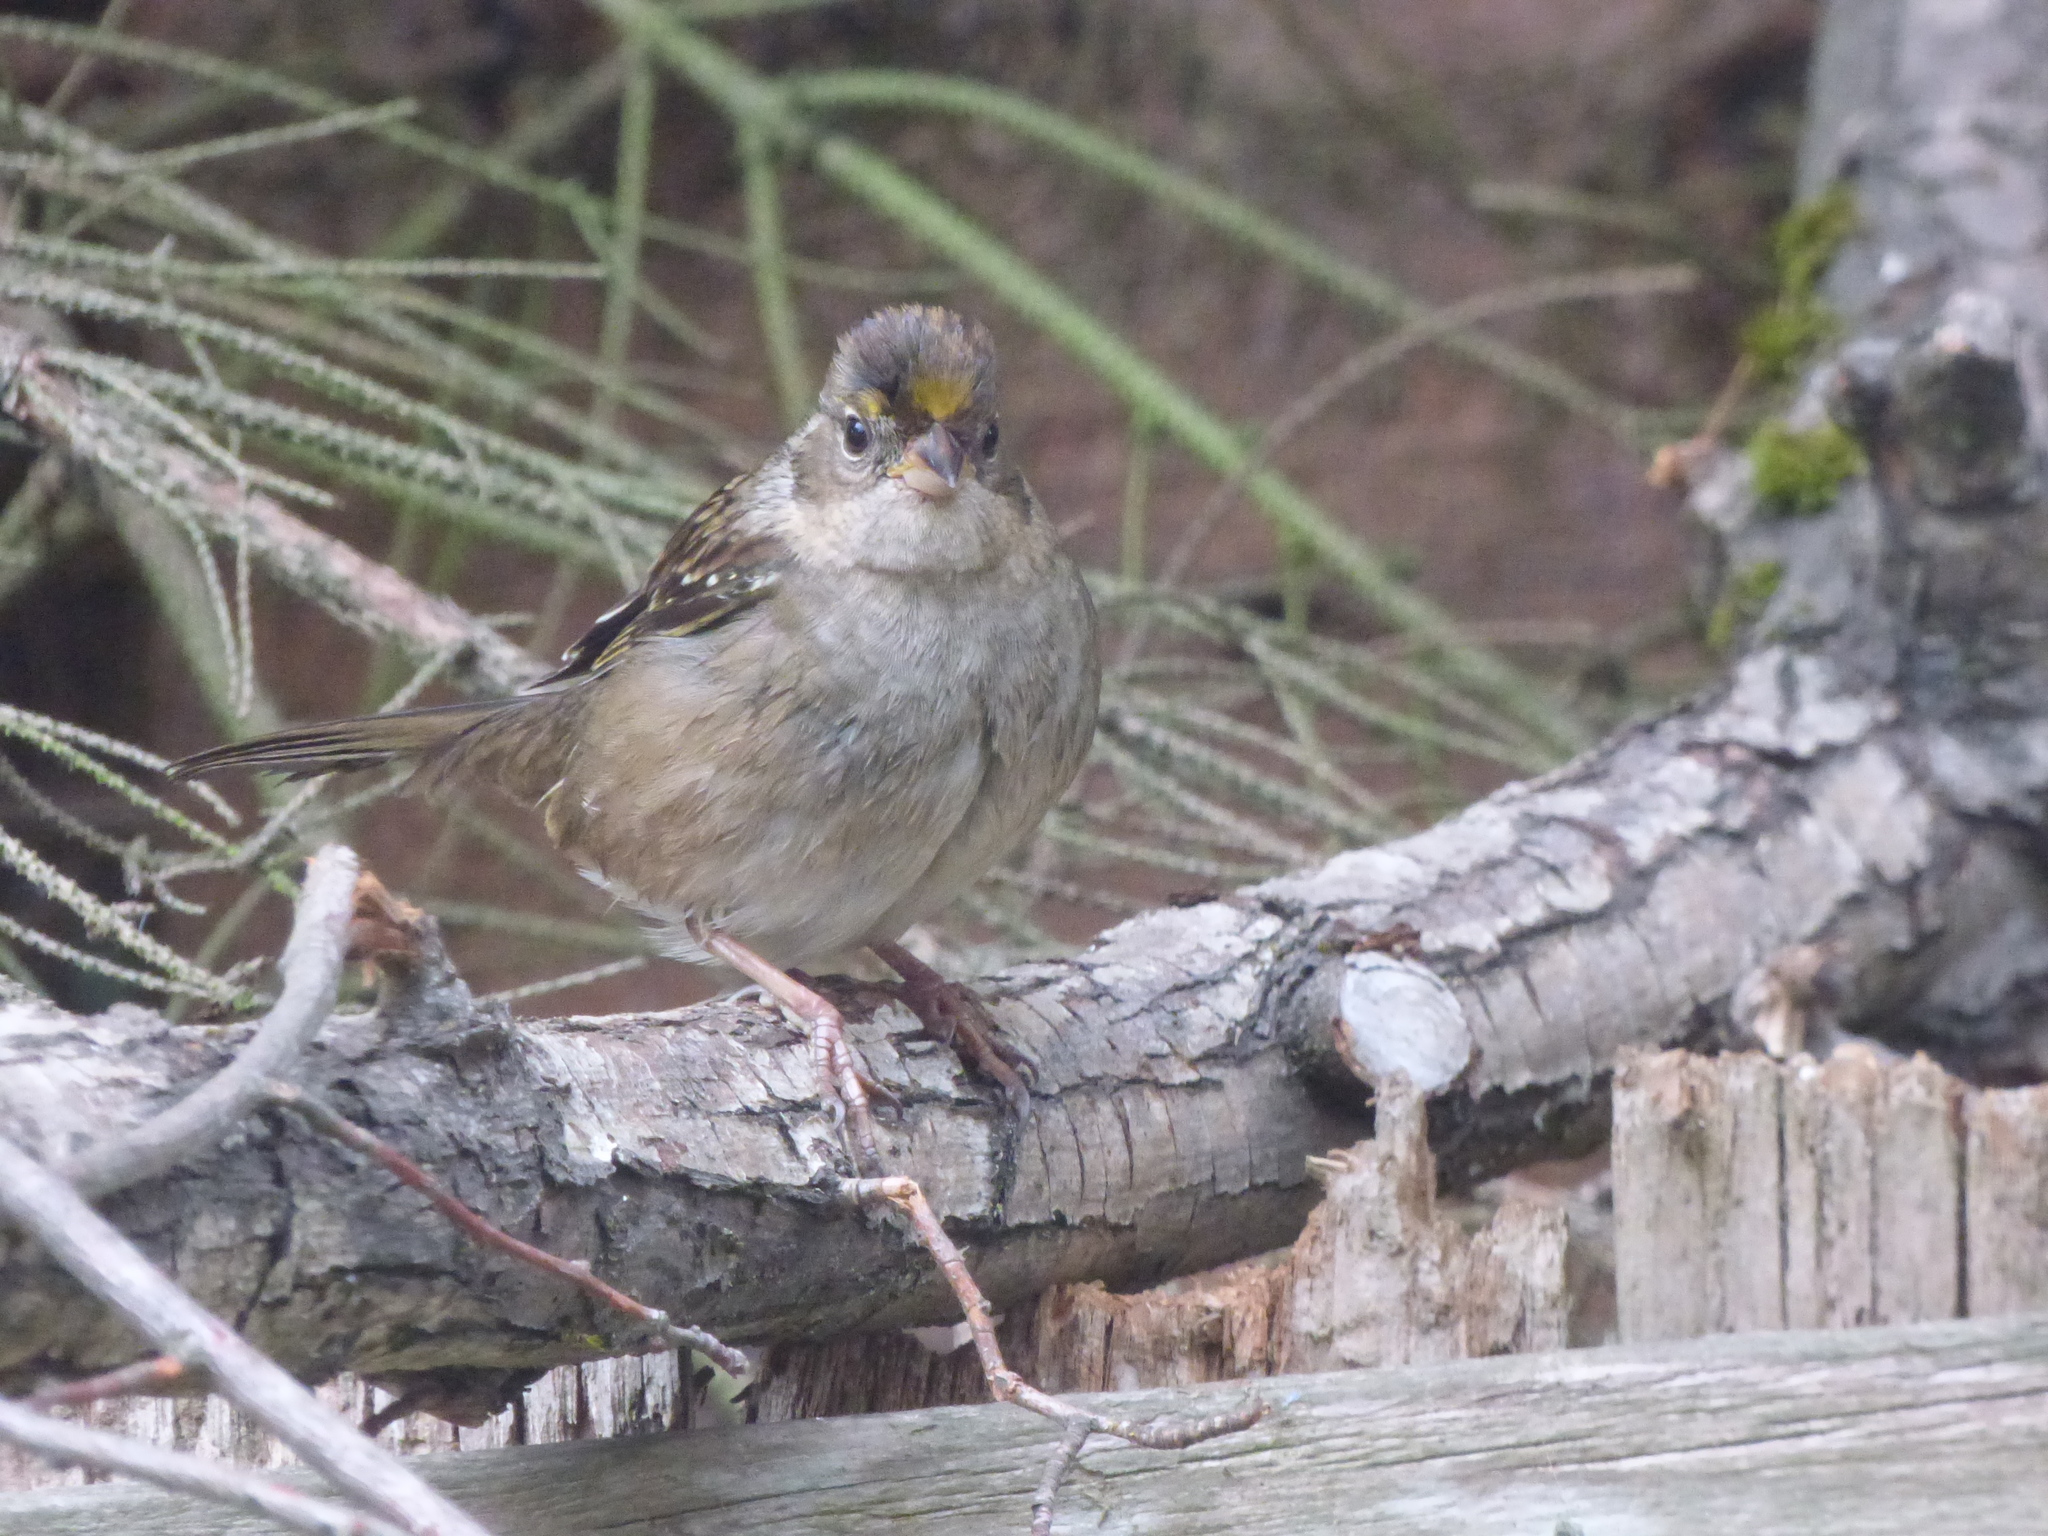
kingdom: Animalia
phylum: Chordata
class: Aves
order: Passeriformes
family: Passerellidae
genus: Zonotrichia
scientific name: Zonotrichia atricapilla
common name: Golden-crowned sparrow
